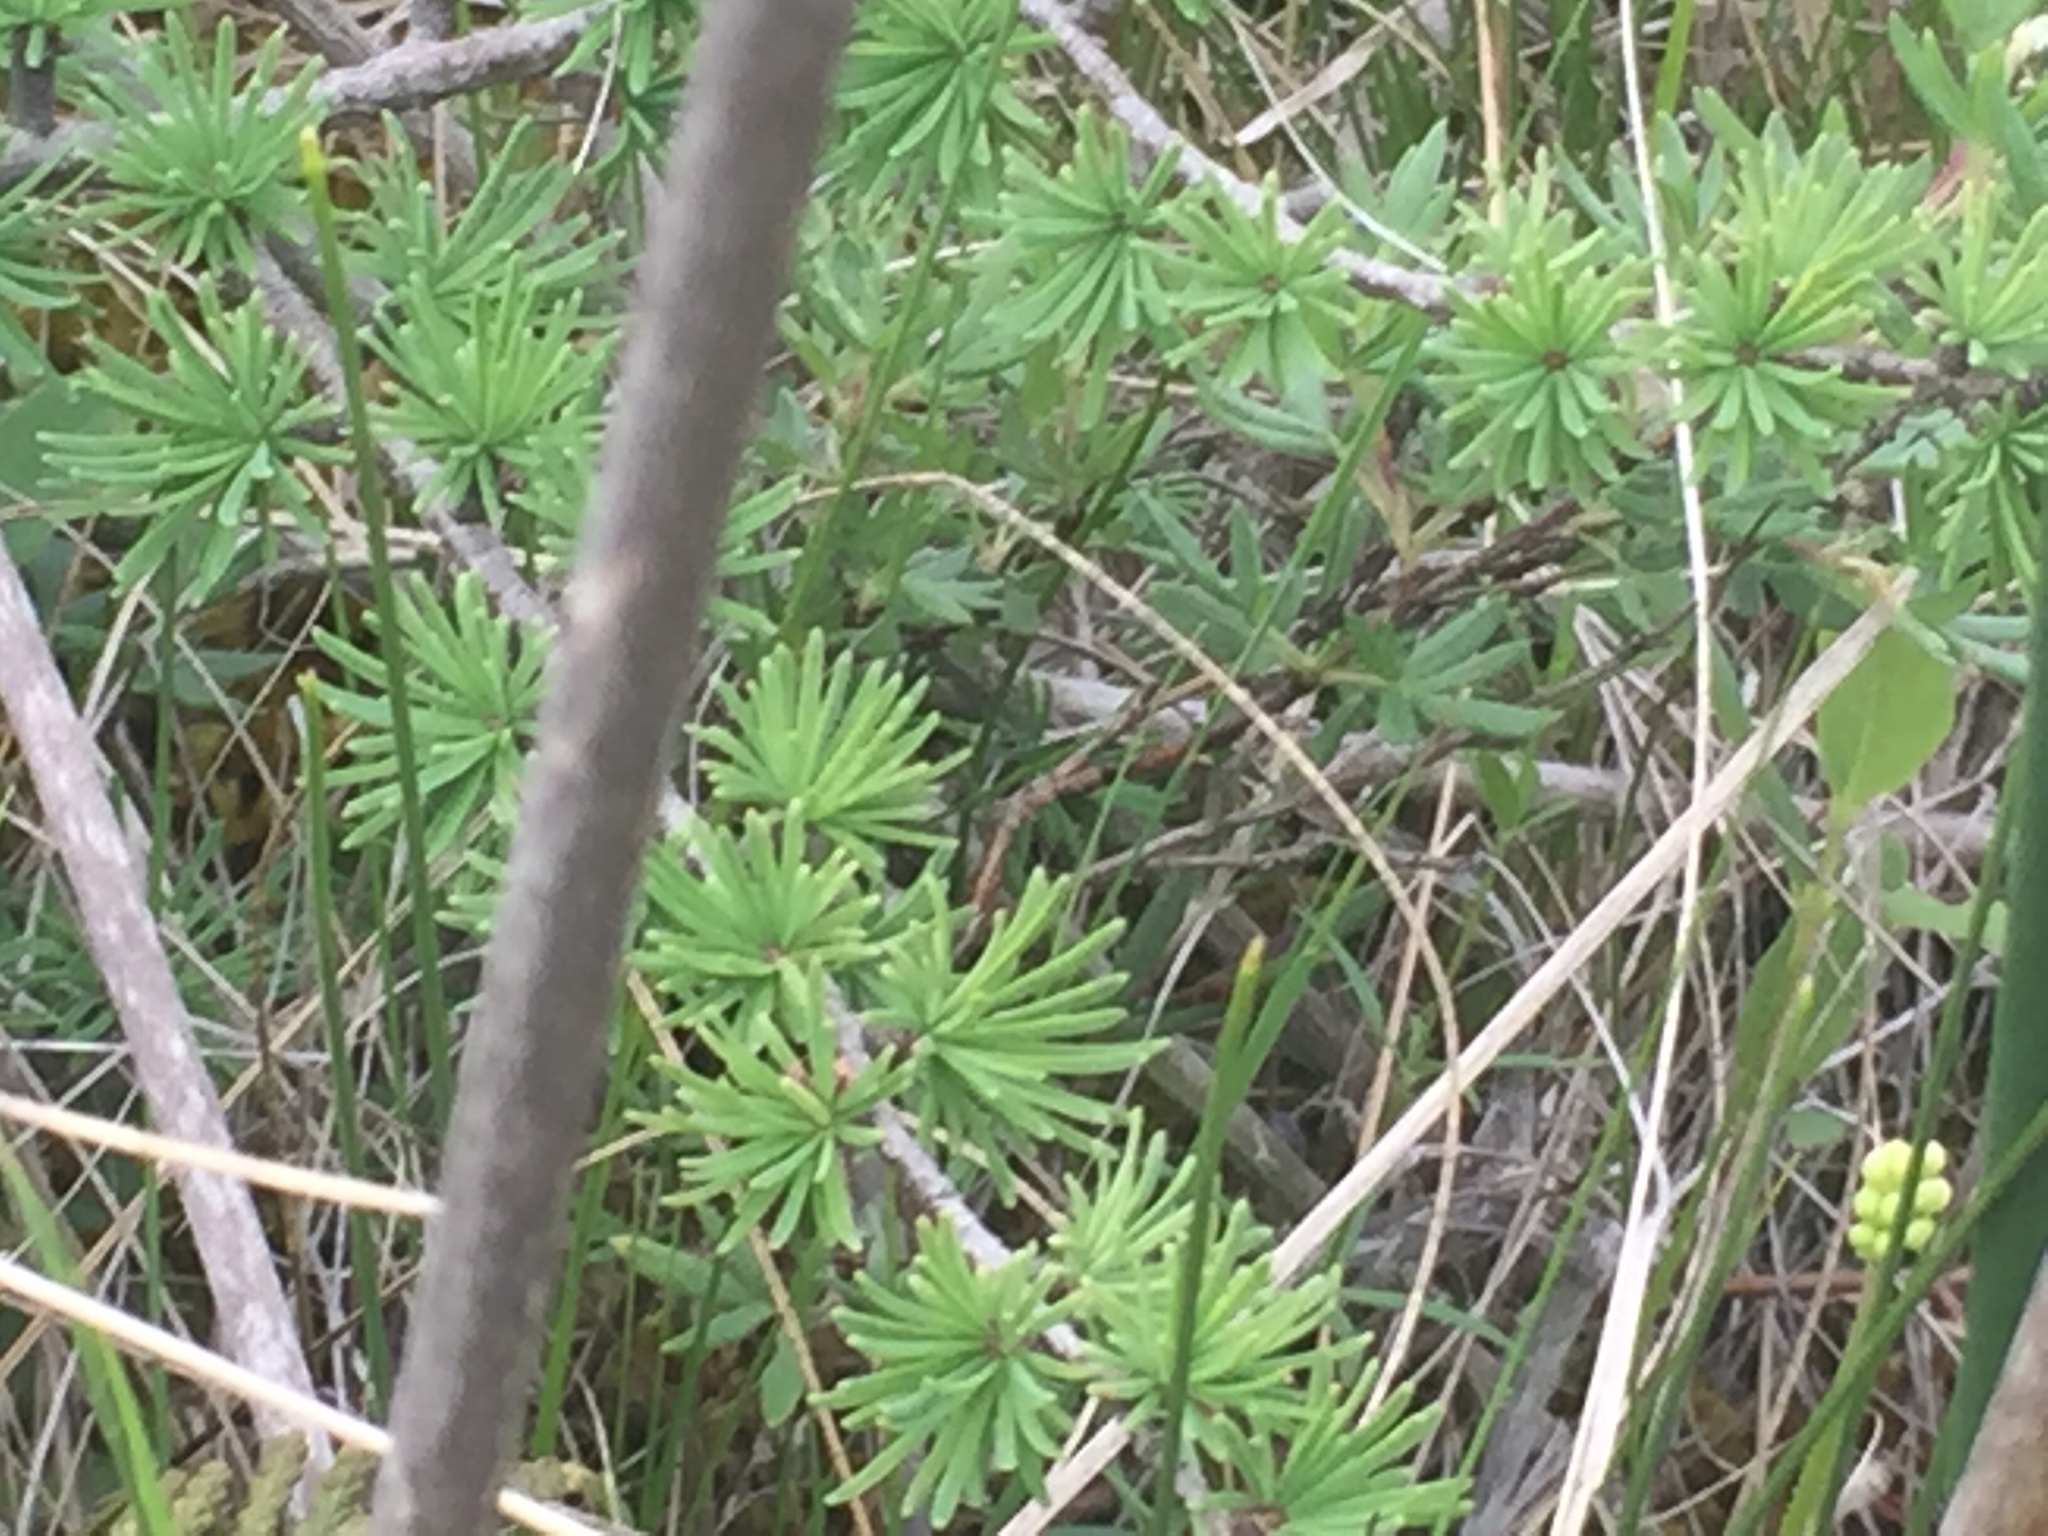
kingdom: Plantae
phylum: Tracheophyta
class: Pinopsida
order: Pinales
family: Pinaceae
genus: Larix
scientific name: Larix laricina
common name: American larch
